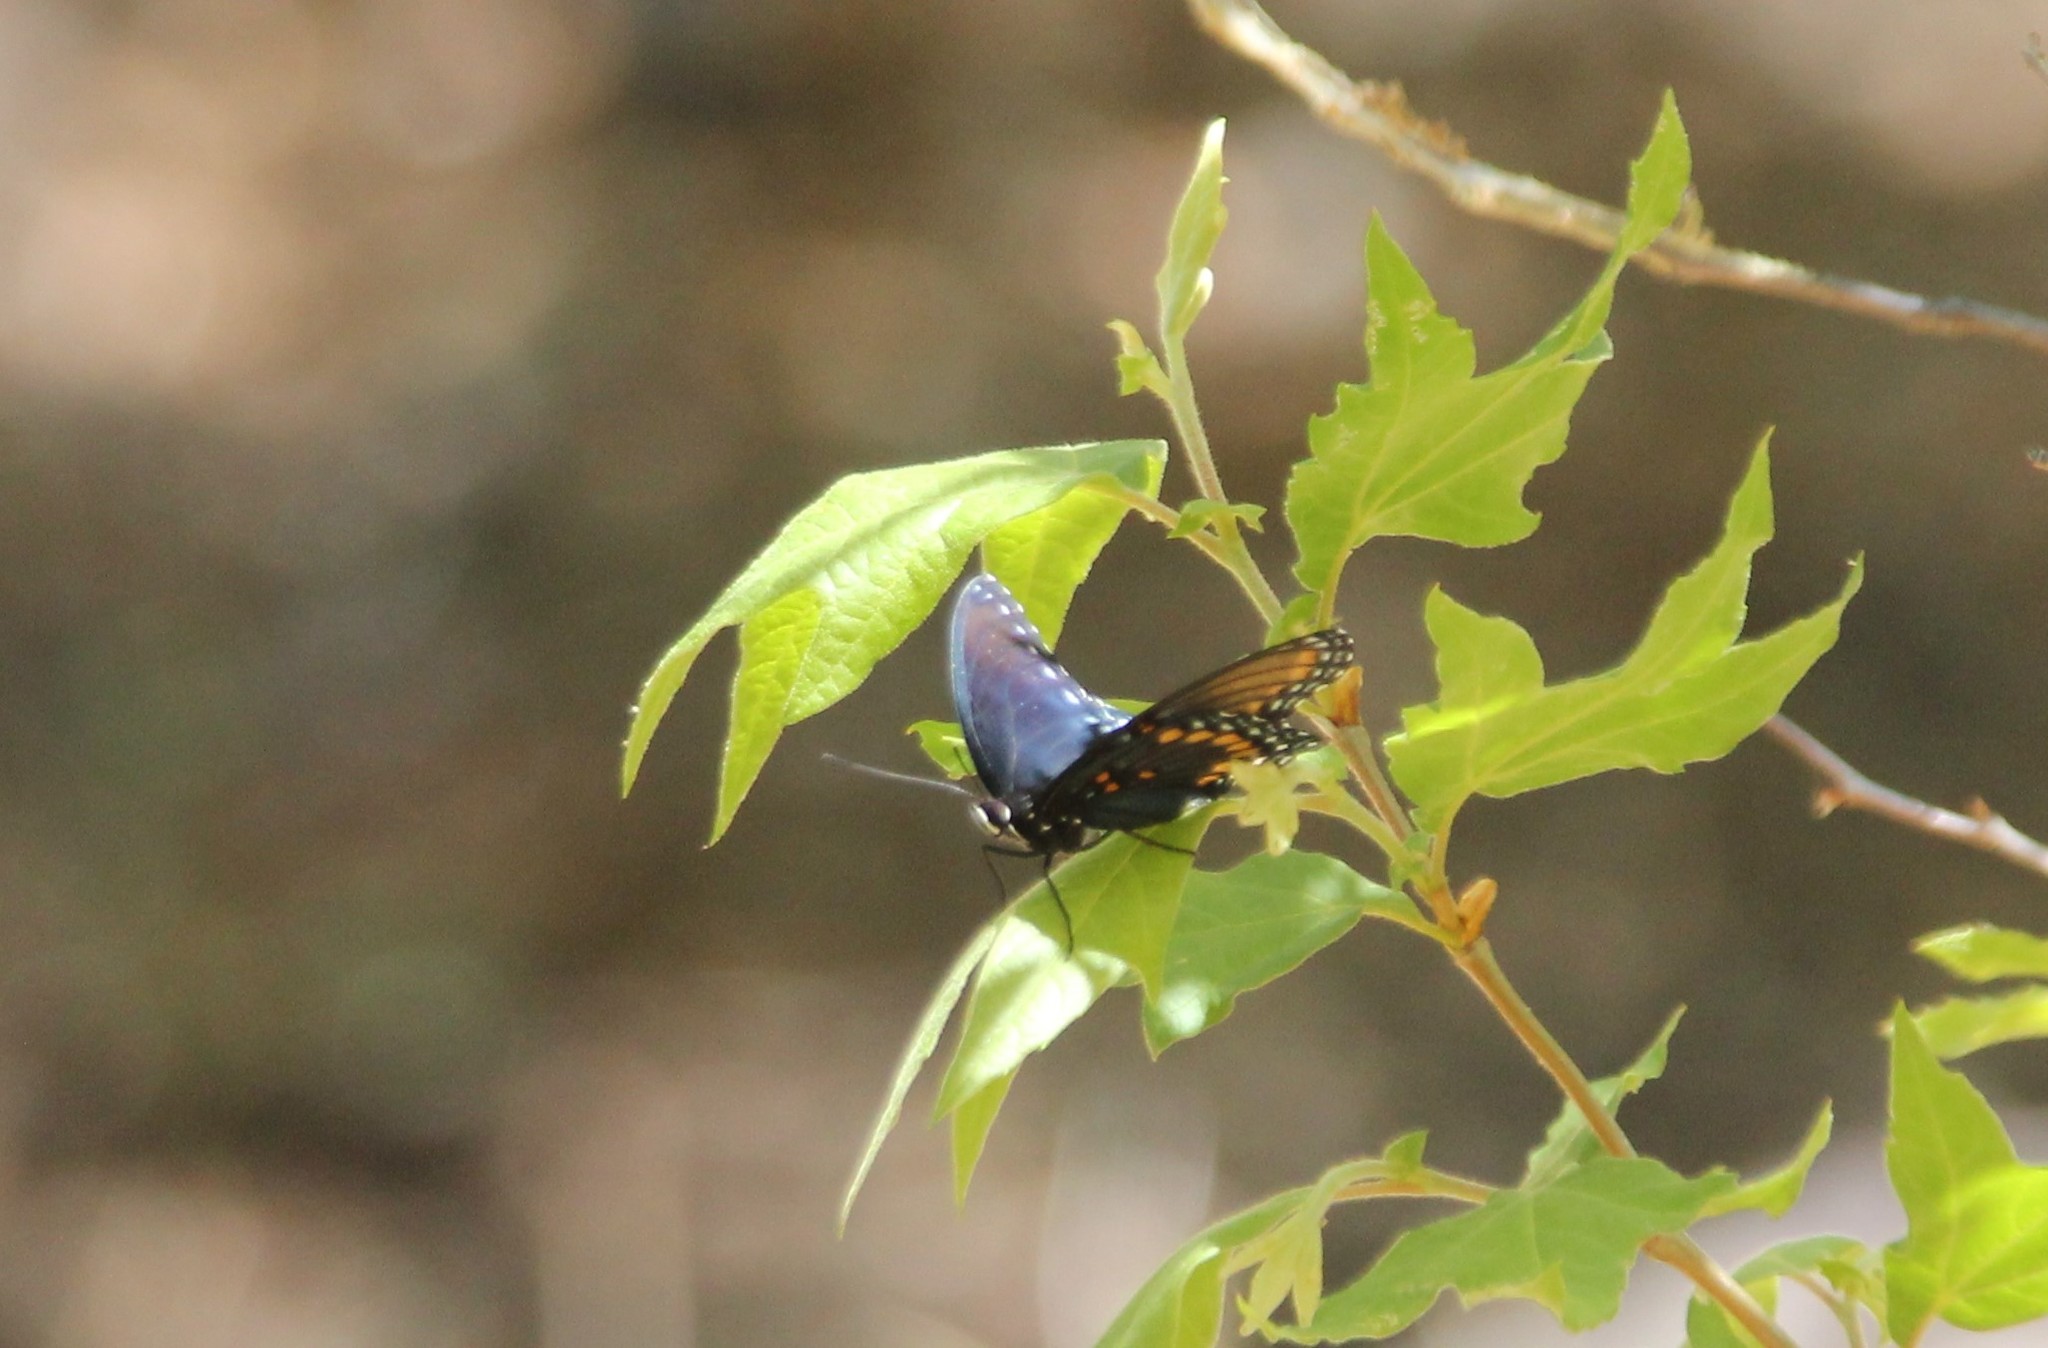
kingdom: Animalia
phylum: Arthropoda
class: Insecta
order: Lepidoptera
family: Nymphalidae
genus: Limenitis
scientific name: Limenitis arthemis
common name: Red-spotted admiral
